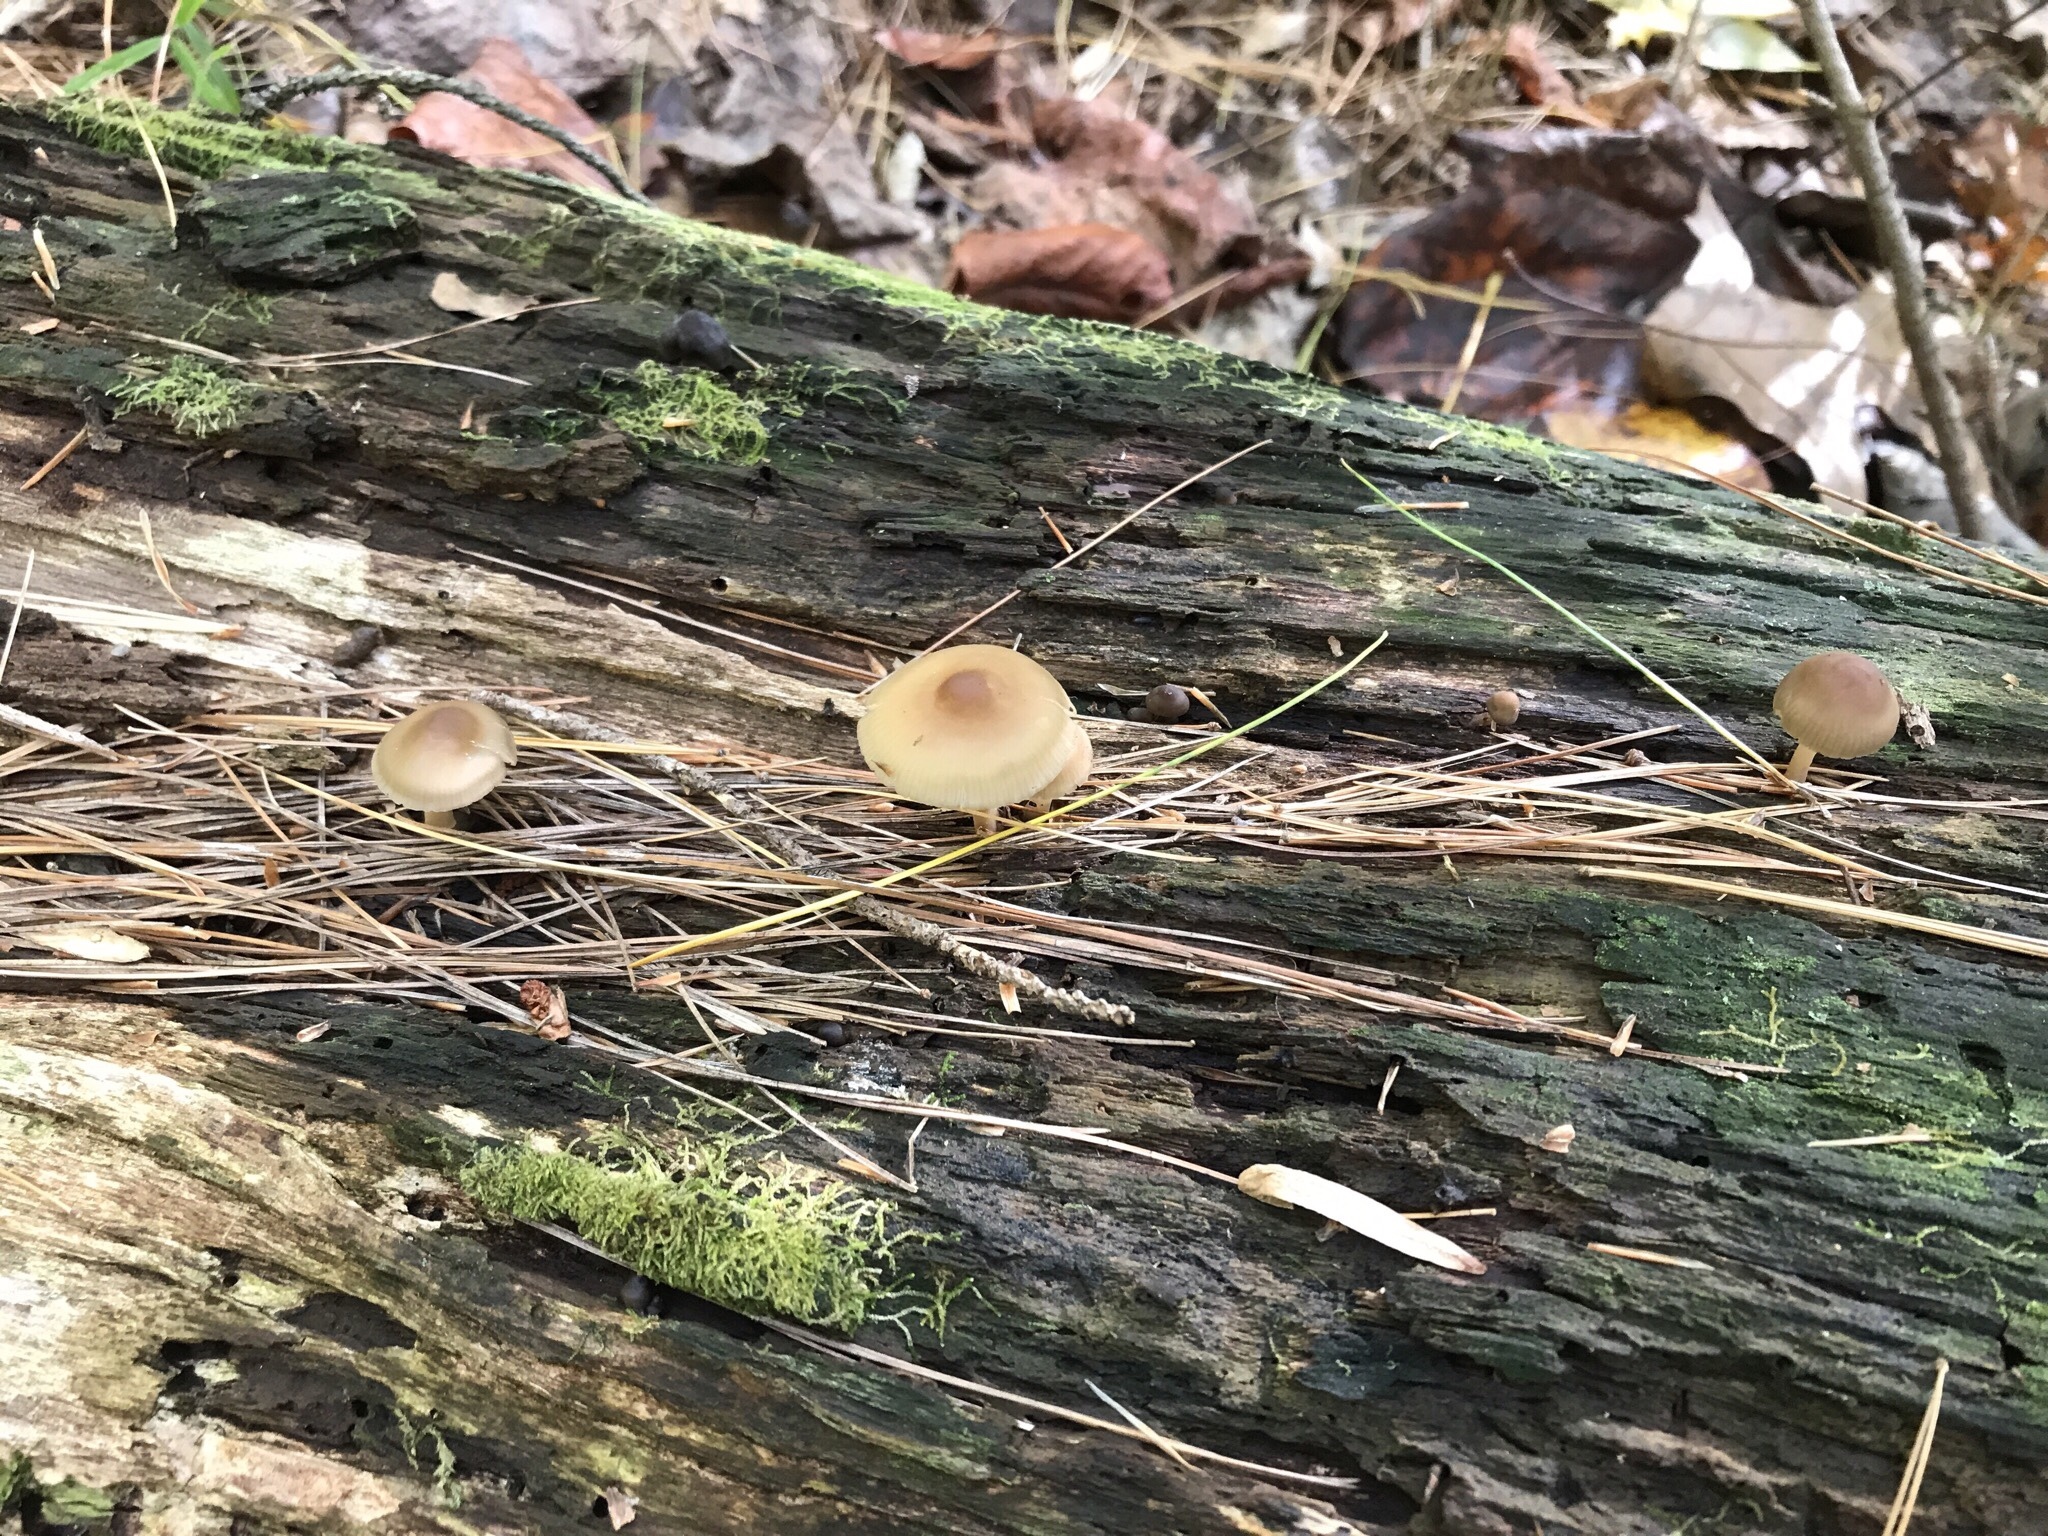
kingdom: Fungi
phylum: Basidiomycota
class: Agaricomycetes
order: Agaricales
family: Mycenaceae
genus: Mycena
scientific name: Mycena galericulata
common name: Bonnet mycena
